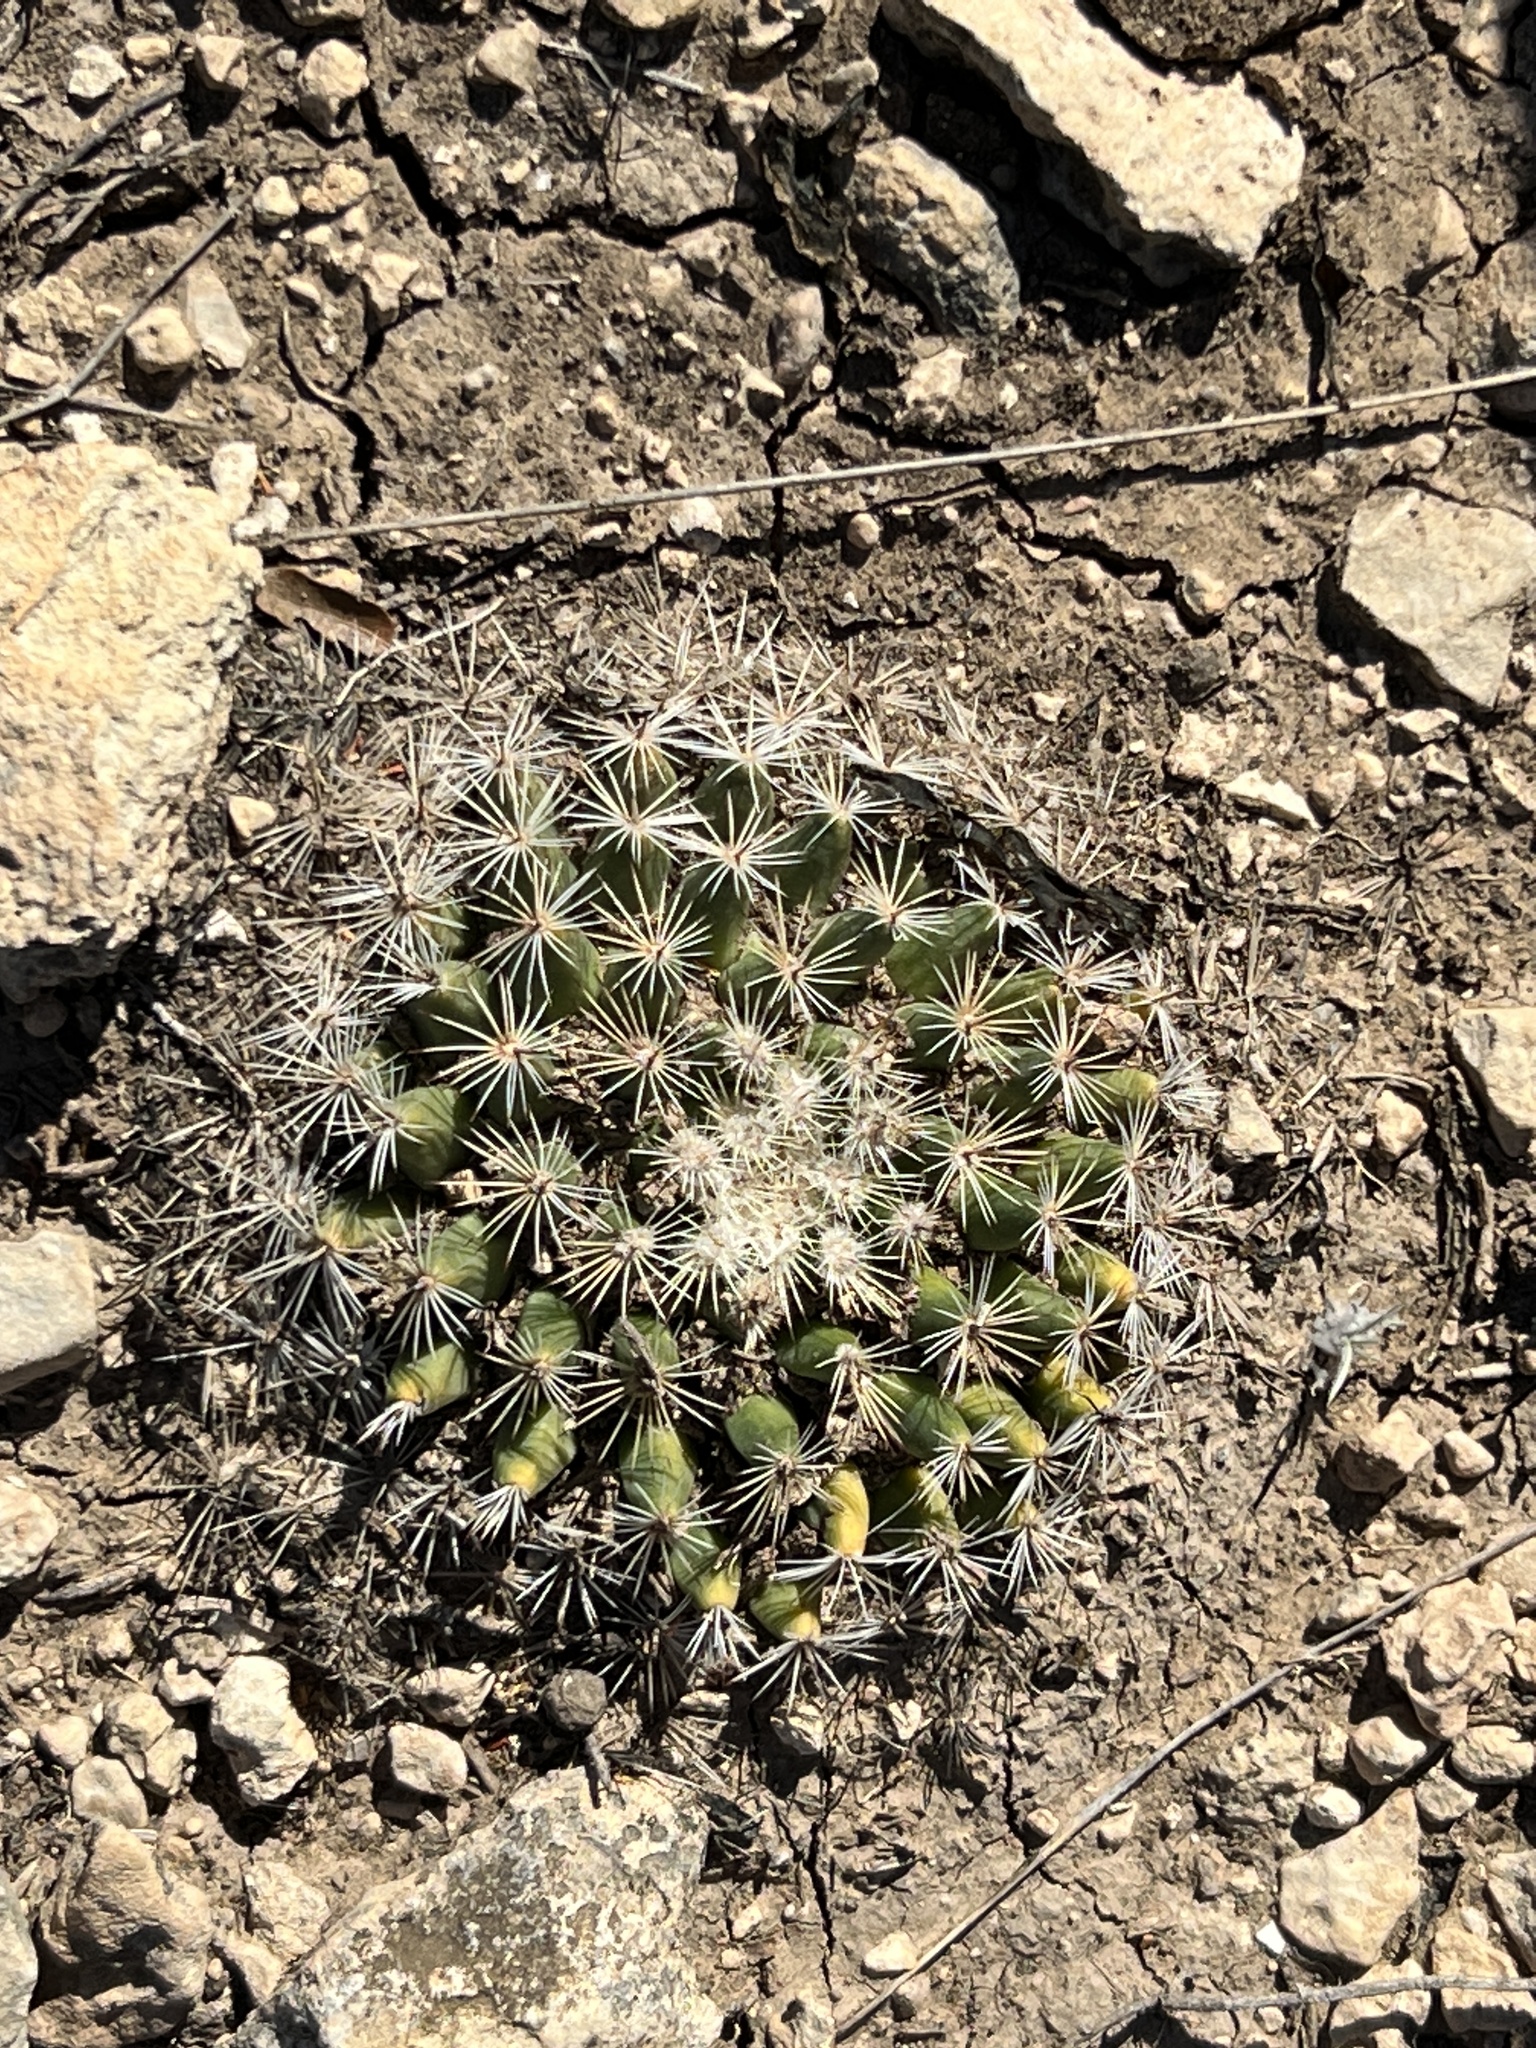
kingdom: Plantae
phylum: Tracheophyta
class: Magnoliopsida
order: Caryophyllales
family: Cactaceae
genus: Mammillaria
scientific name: Mammillaria heyderi
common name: Little nipple cactus
